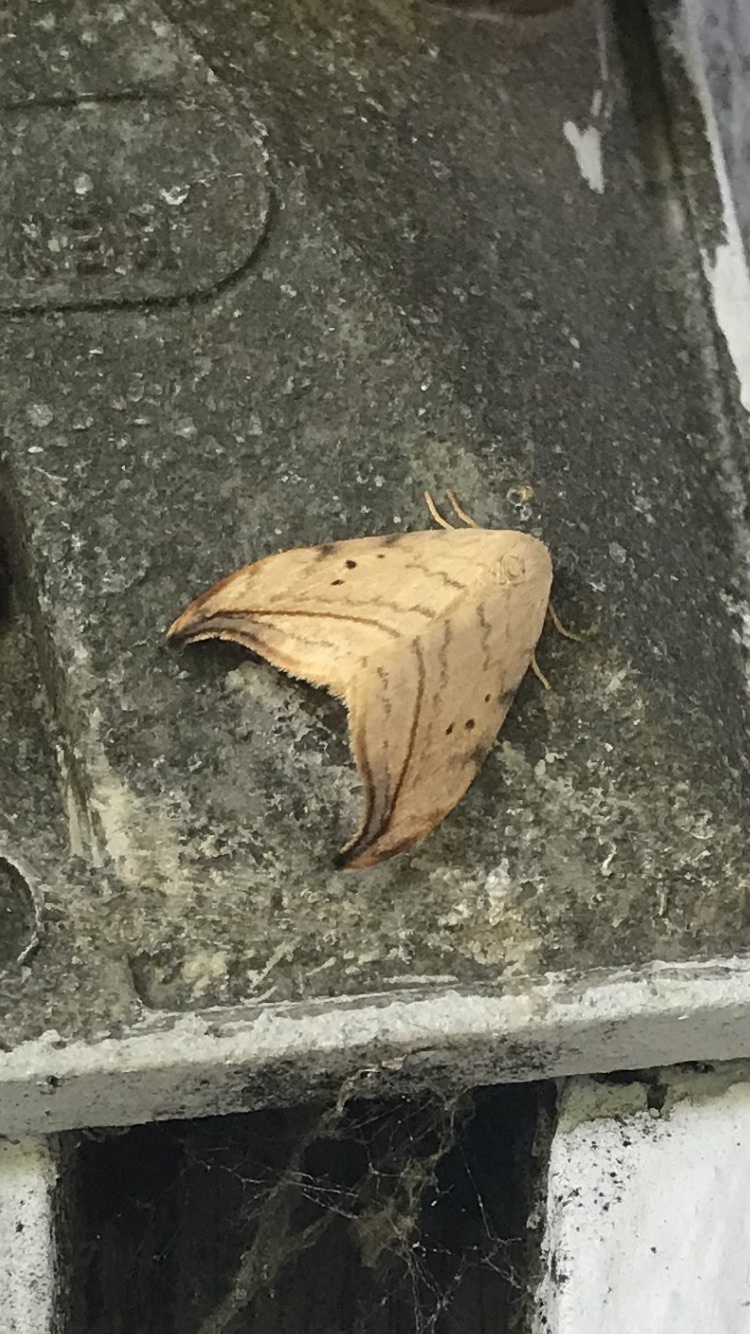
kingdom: Animalia
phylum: Arthropoda
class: Insecta
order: Lepidoptera
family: Drepanidae
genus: Drepana
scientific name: Drepana arcuata
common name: Arched hooktip moth
